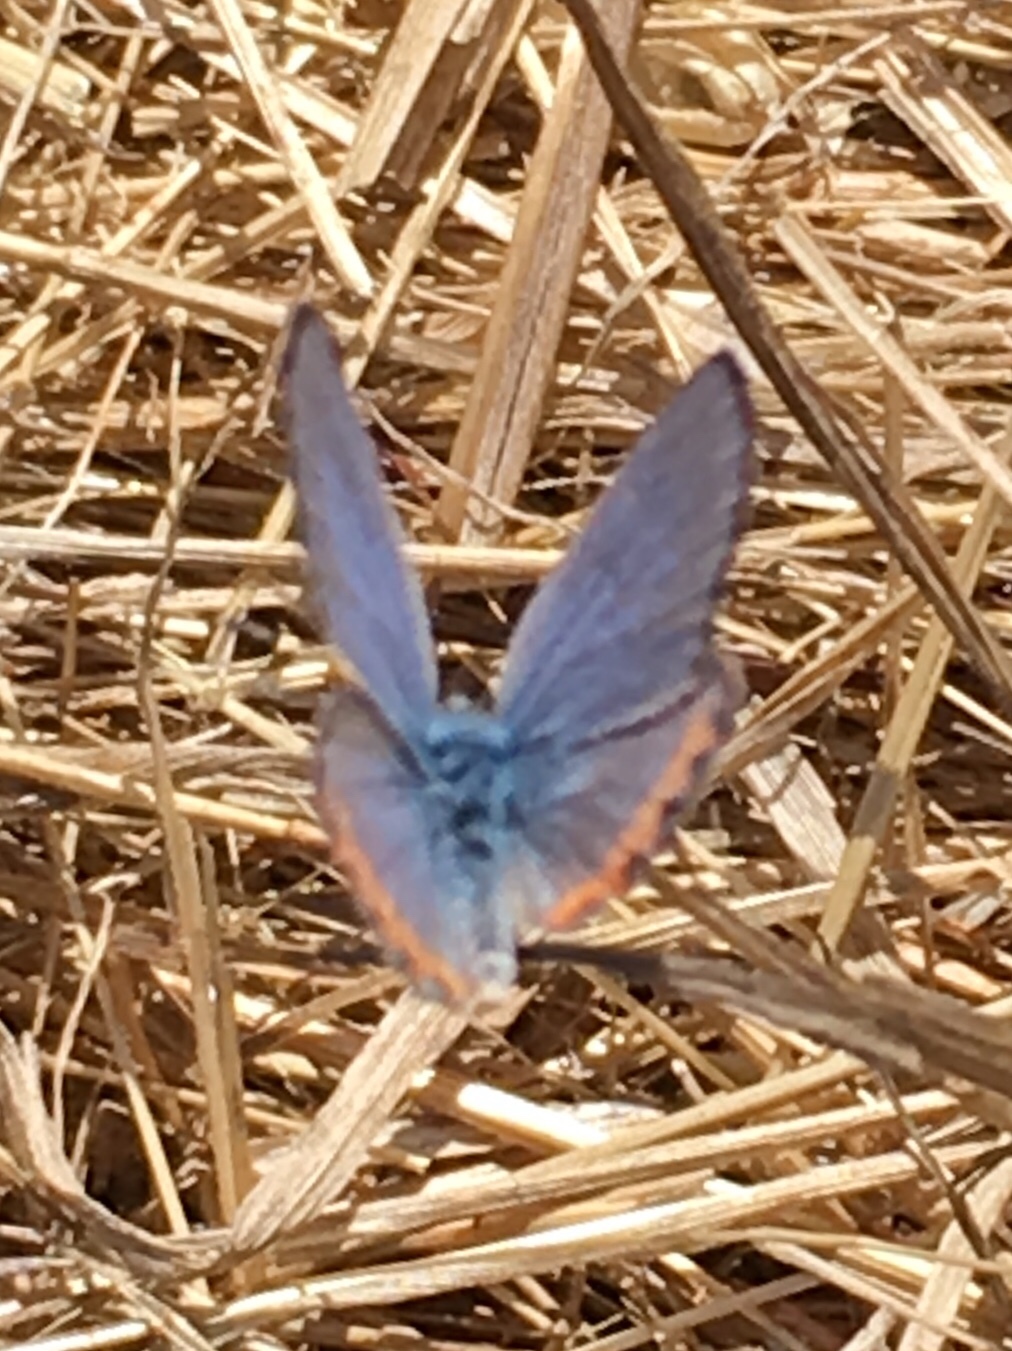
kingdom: Animalia
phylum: Arthropoda
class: Insecta
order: Lepidoptera
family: Lycaenidae
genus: Icaricia
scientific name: Icaricia acmon
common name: Acmon blue
